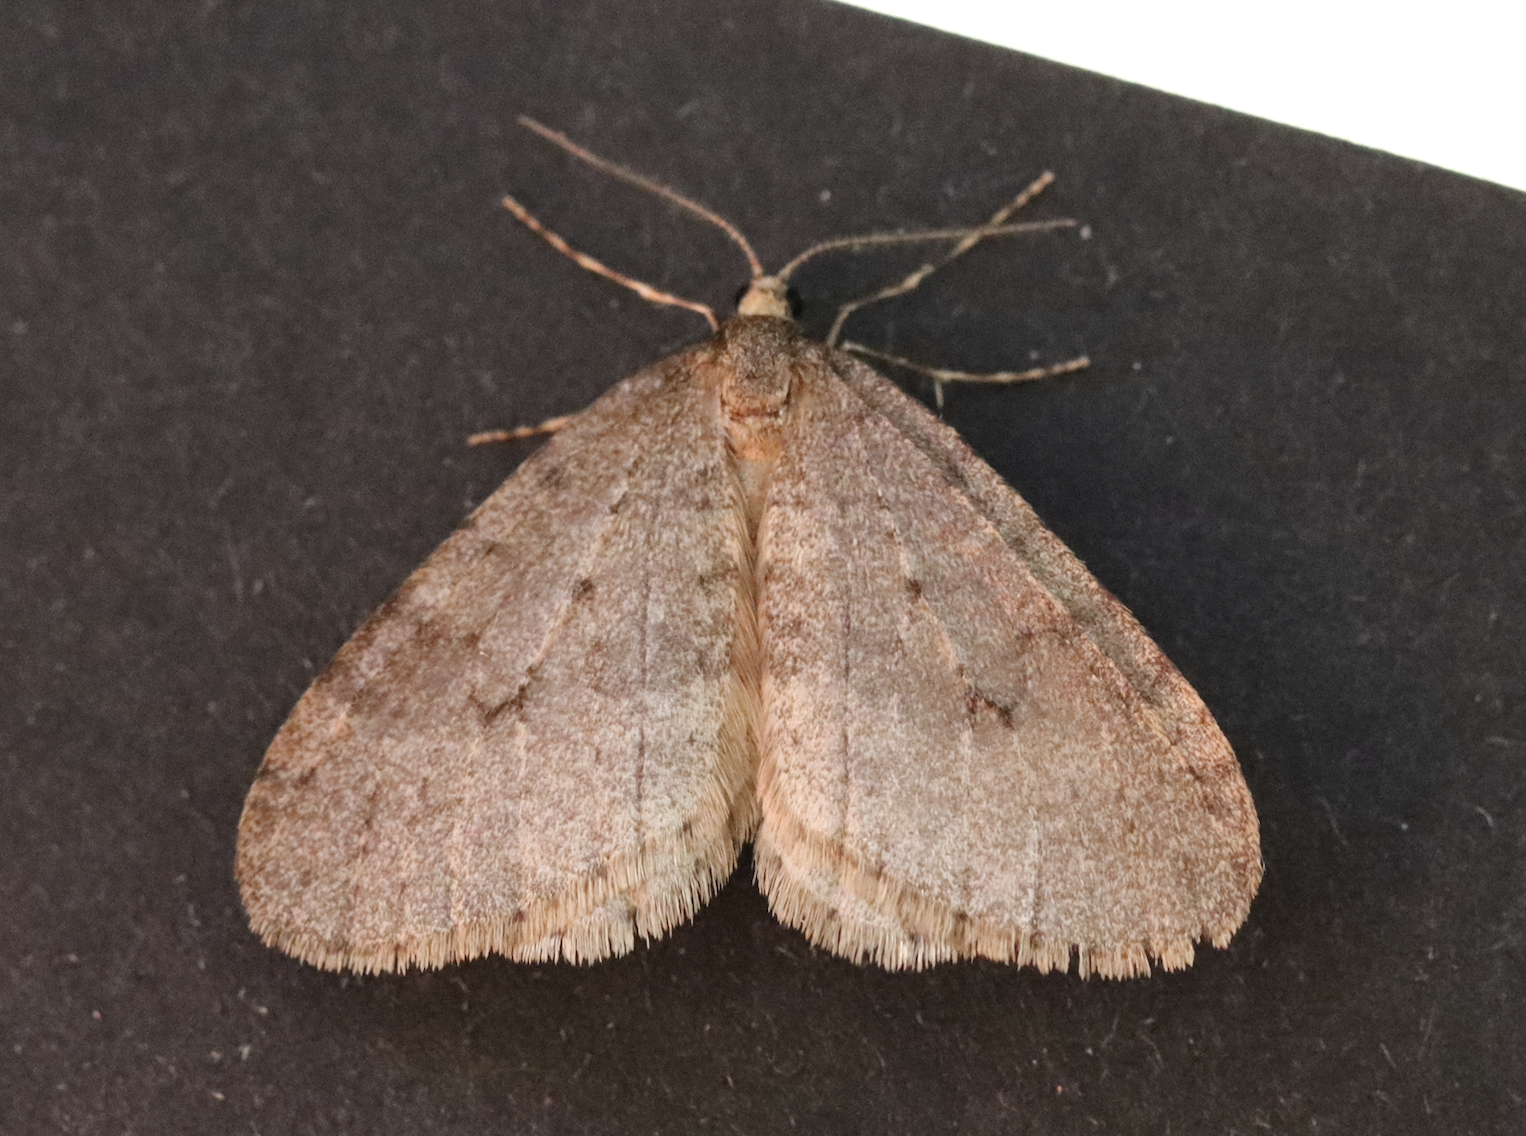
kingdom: Animalia
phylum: Arthropoda
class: Insecta
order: Lepidoptera
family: Geometridae
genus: Operophtera
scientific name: Operophtera brumata
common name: Winter moth
